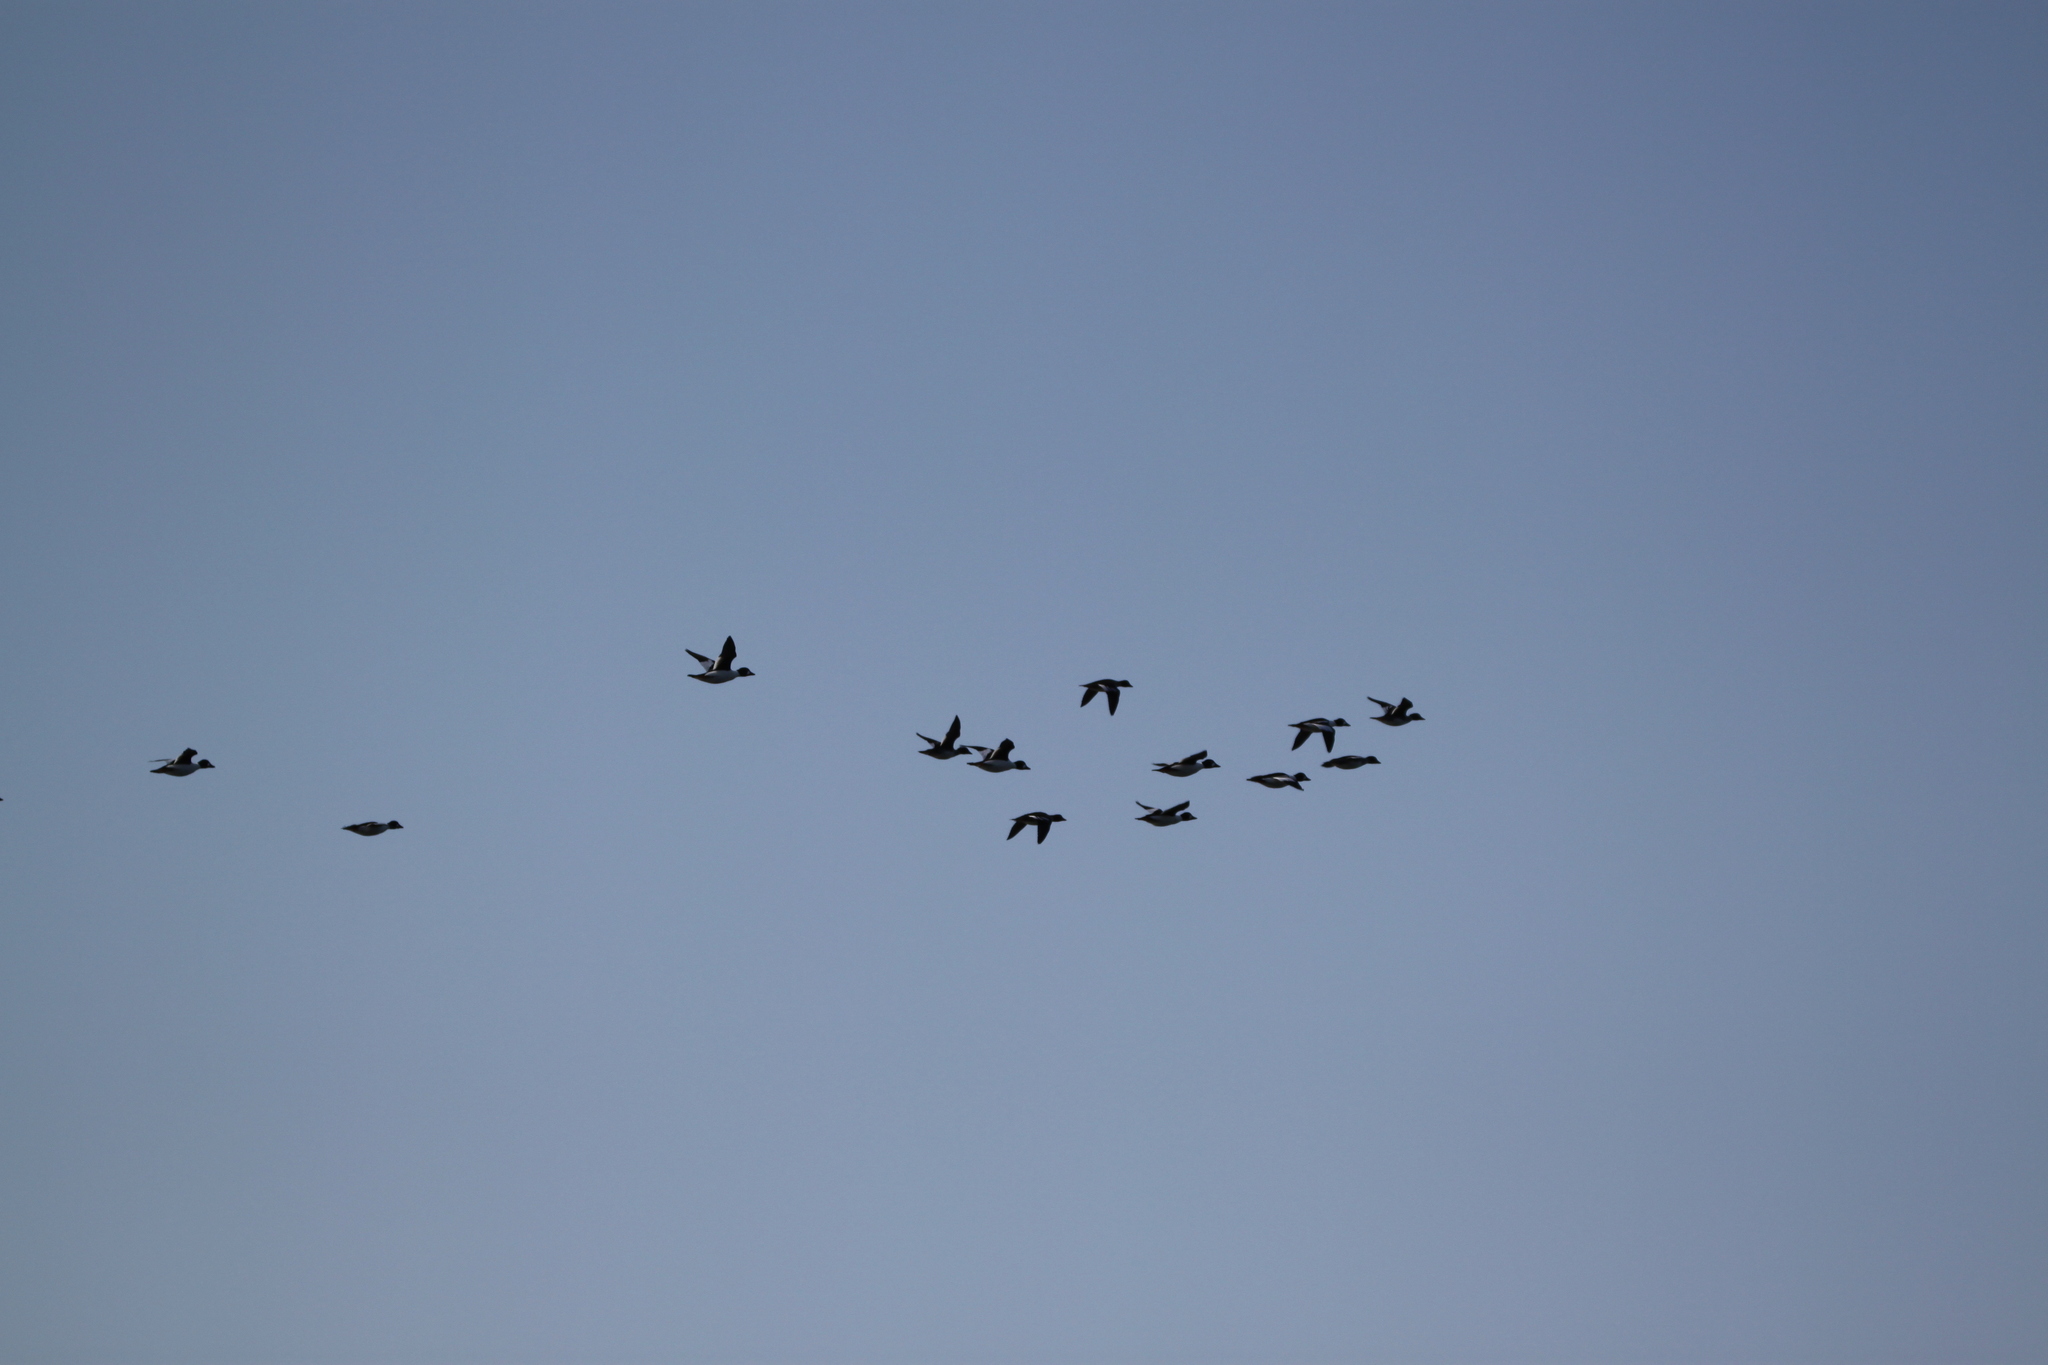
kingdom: Animalia
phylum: Chordata
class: Aves
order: Anseriformes
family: Anatidae
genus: Bucephala
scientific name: Bucephala clangula
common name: Common goldeneye
